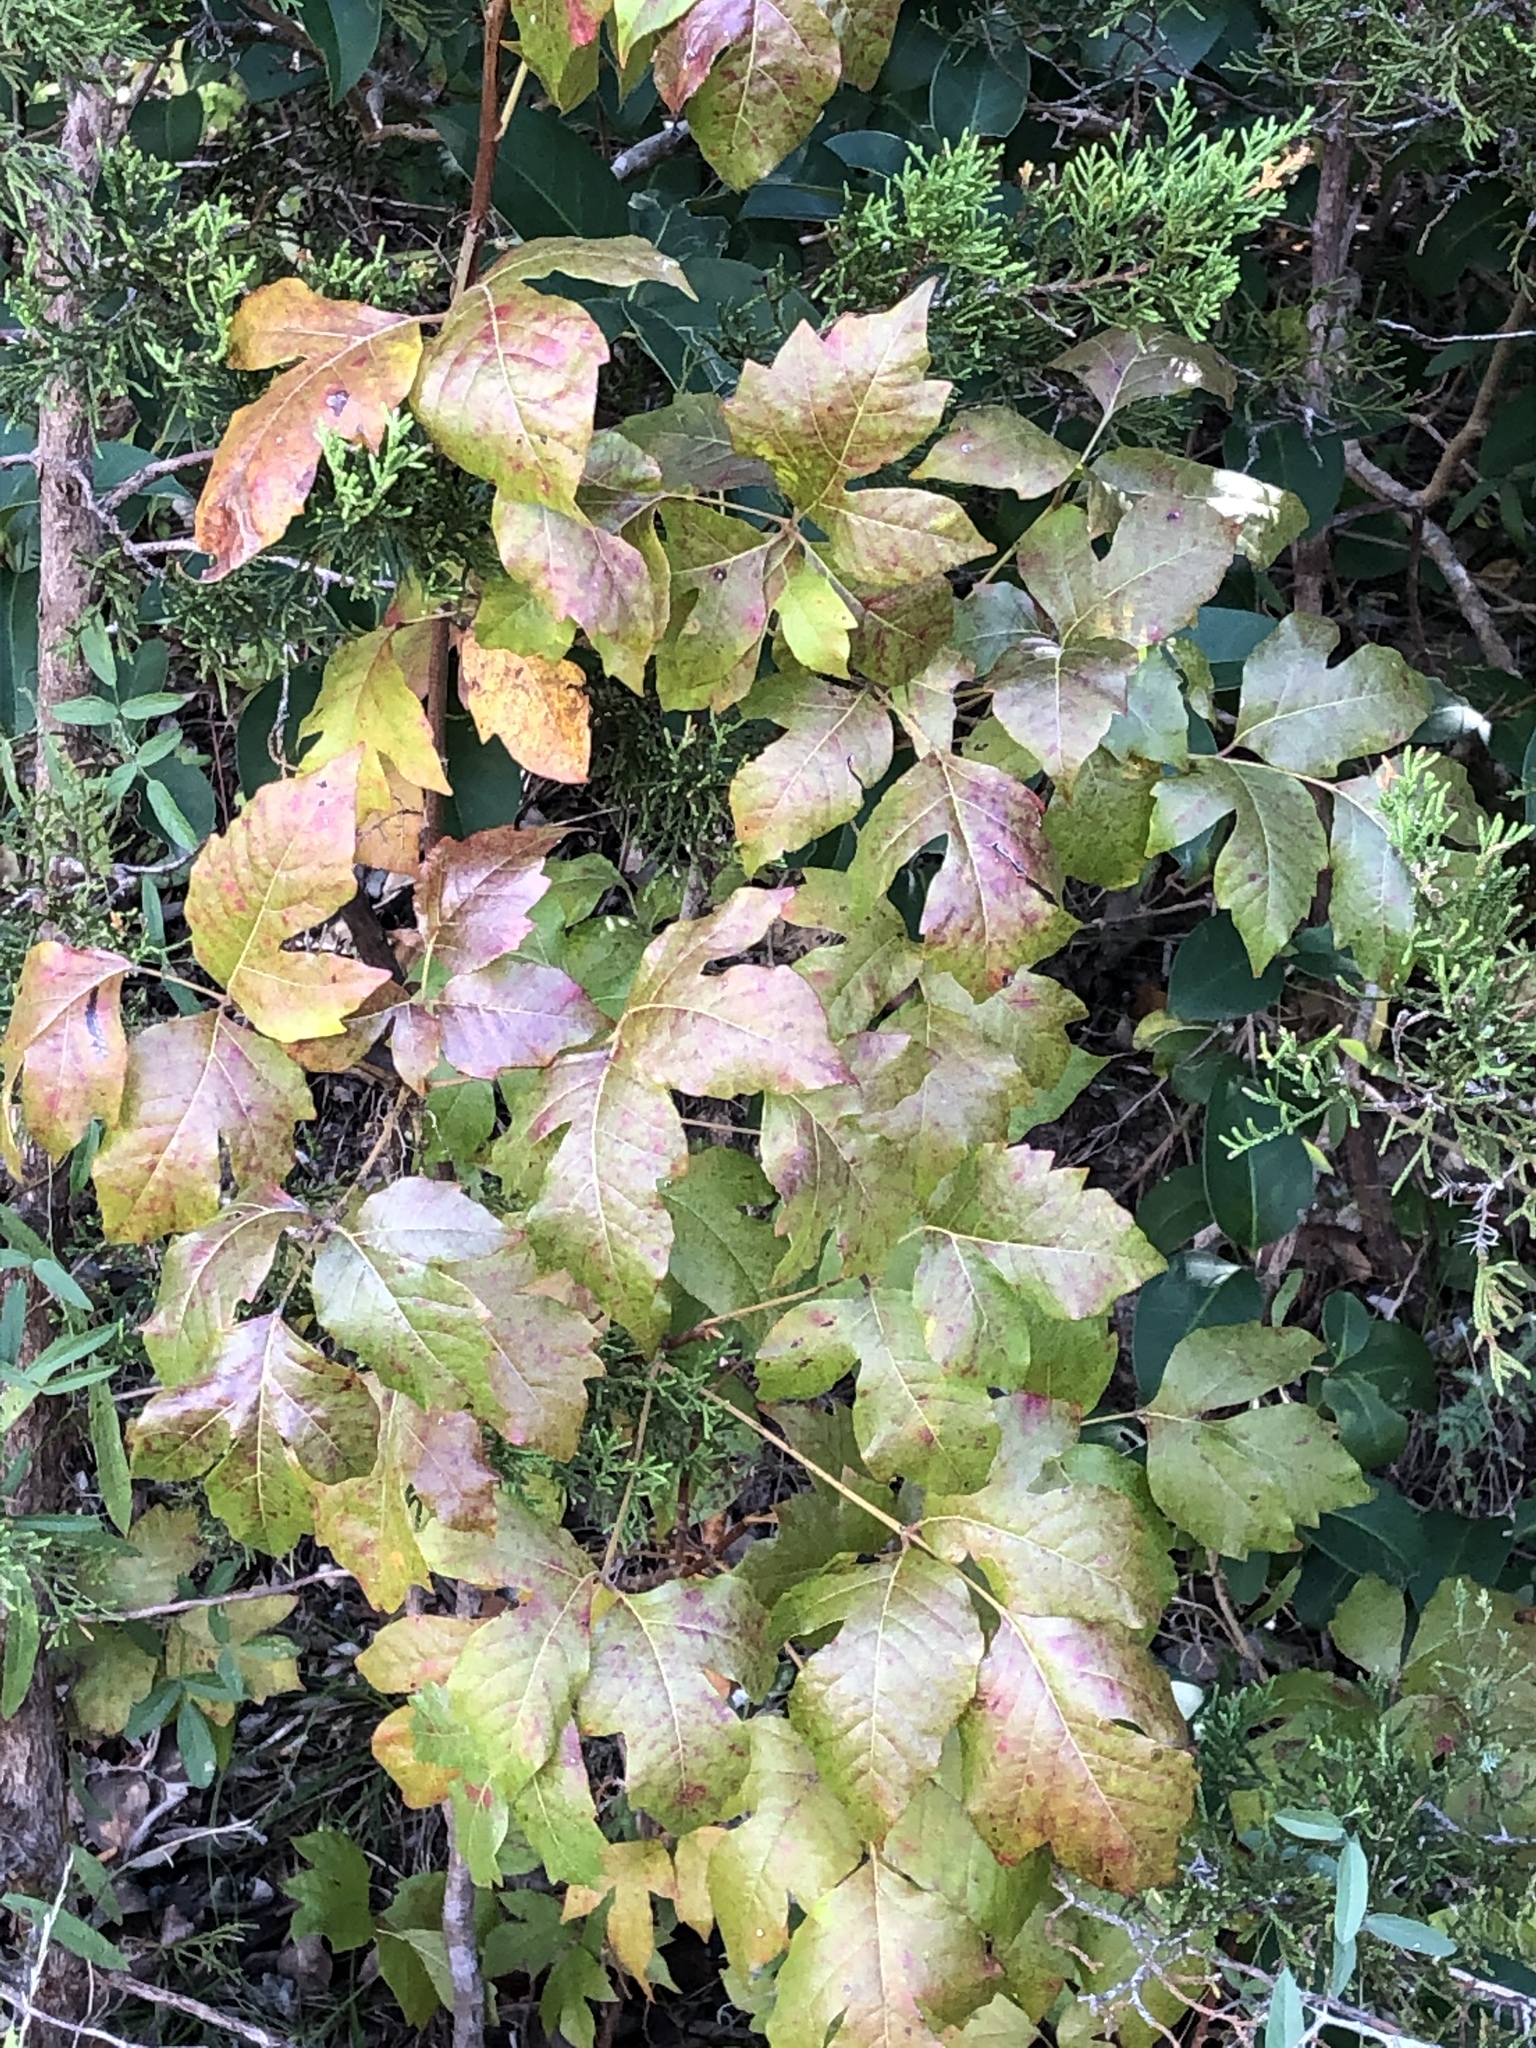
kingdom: Plantae
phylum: Tracheophyta
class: Magnoliopsida
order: Sapindales
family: Anacardiaceae
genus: Toxicodendron
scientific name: Toxicodendron radicans
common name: Poison ivy
